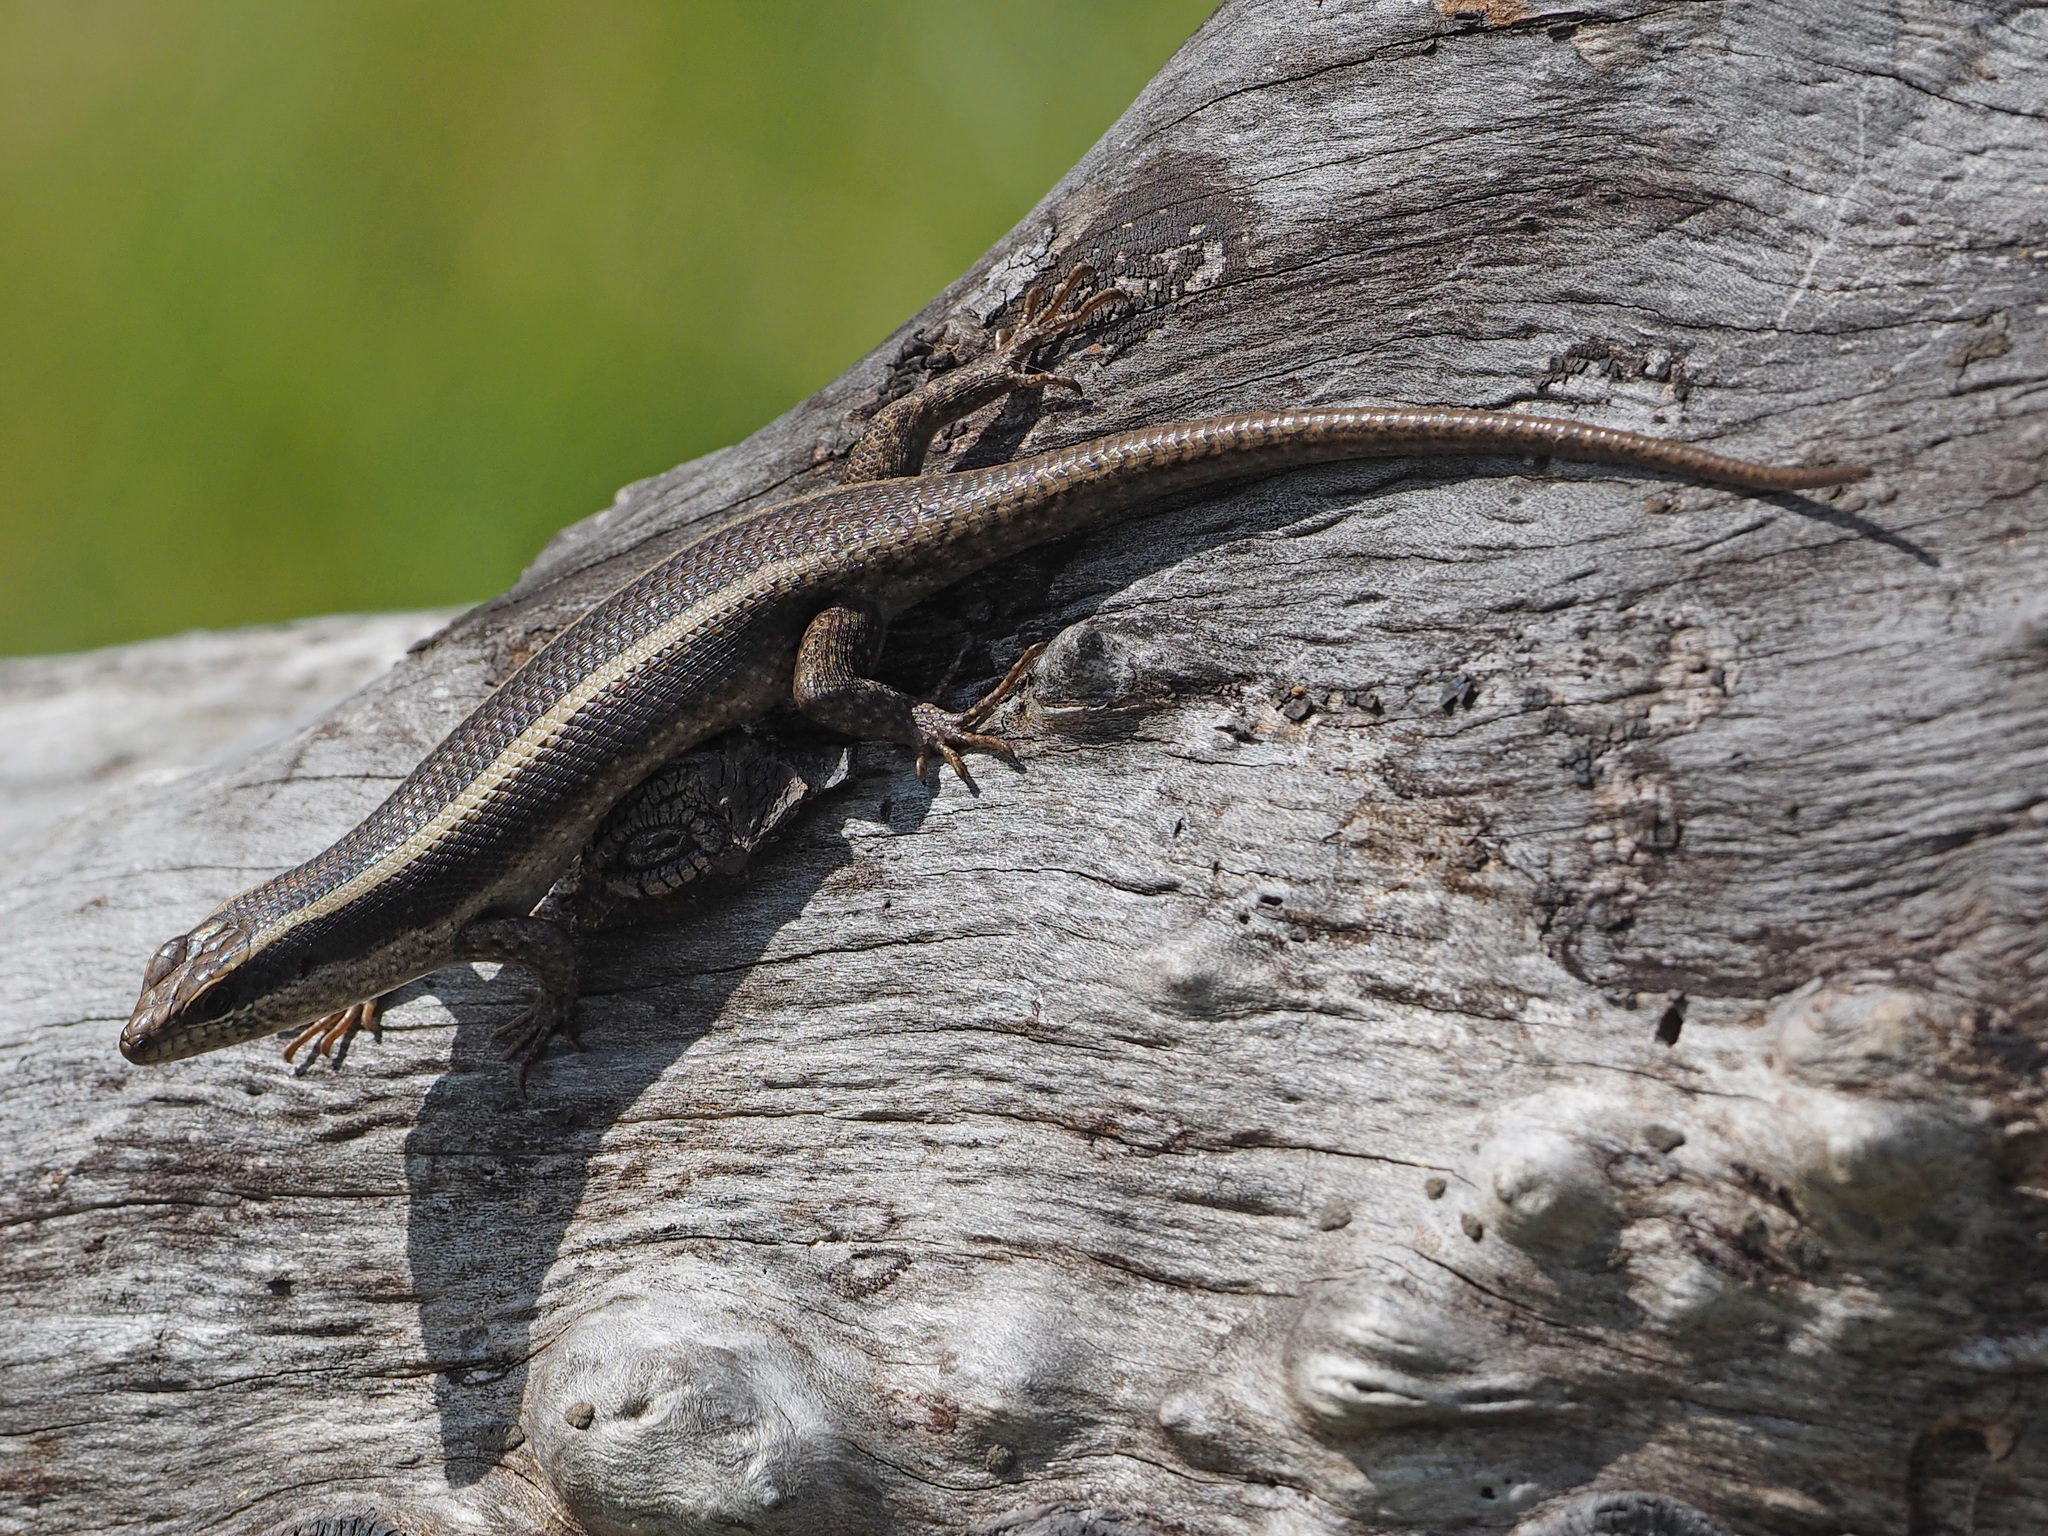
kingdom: Animalia
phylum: Chordata
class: Squamata
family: Scincidae
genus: Trachylepis
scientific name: Trachylepis striata
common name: African striped mabuya
